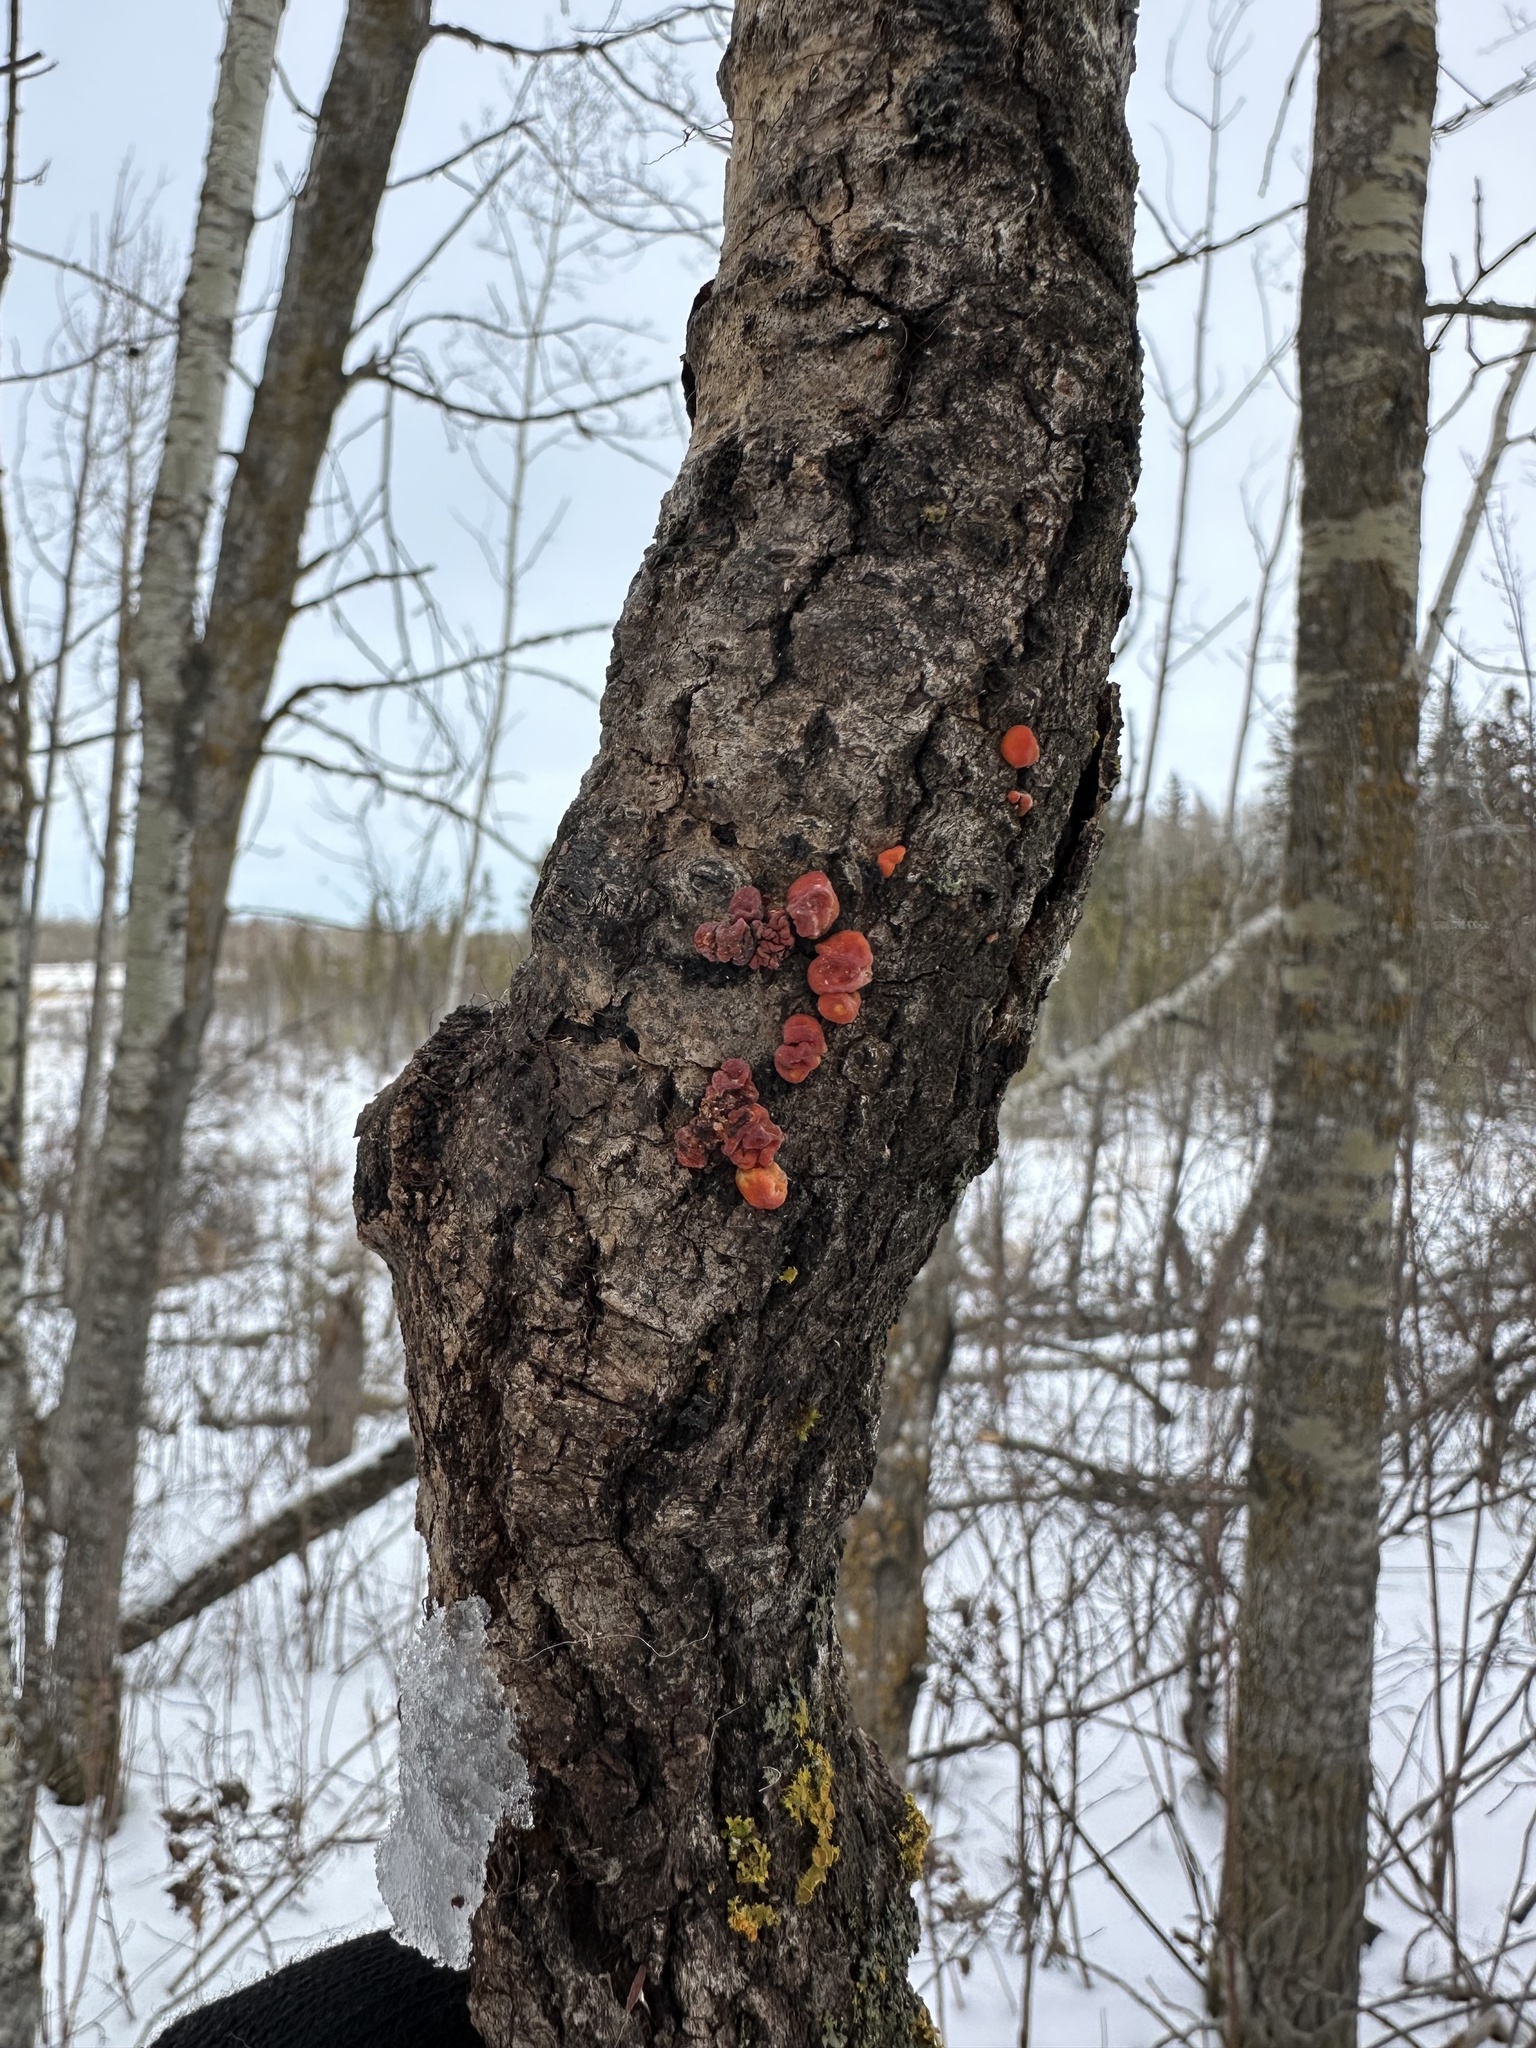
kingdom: Fungi
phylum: Basidiomycota
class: Agaricomycetes
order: Russulales
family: Peniophoraceae
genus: Peniophora
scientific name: Peniophora rufa
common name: Red tree brain fungus
